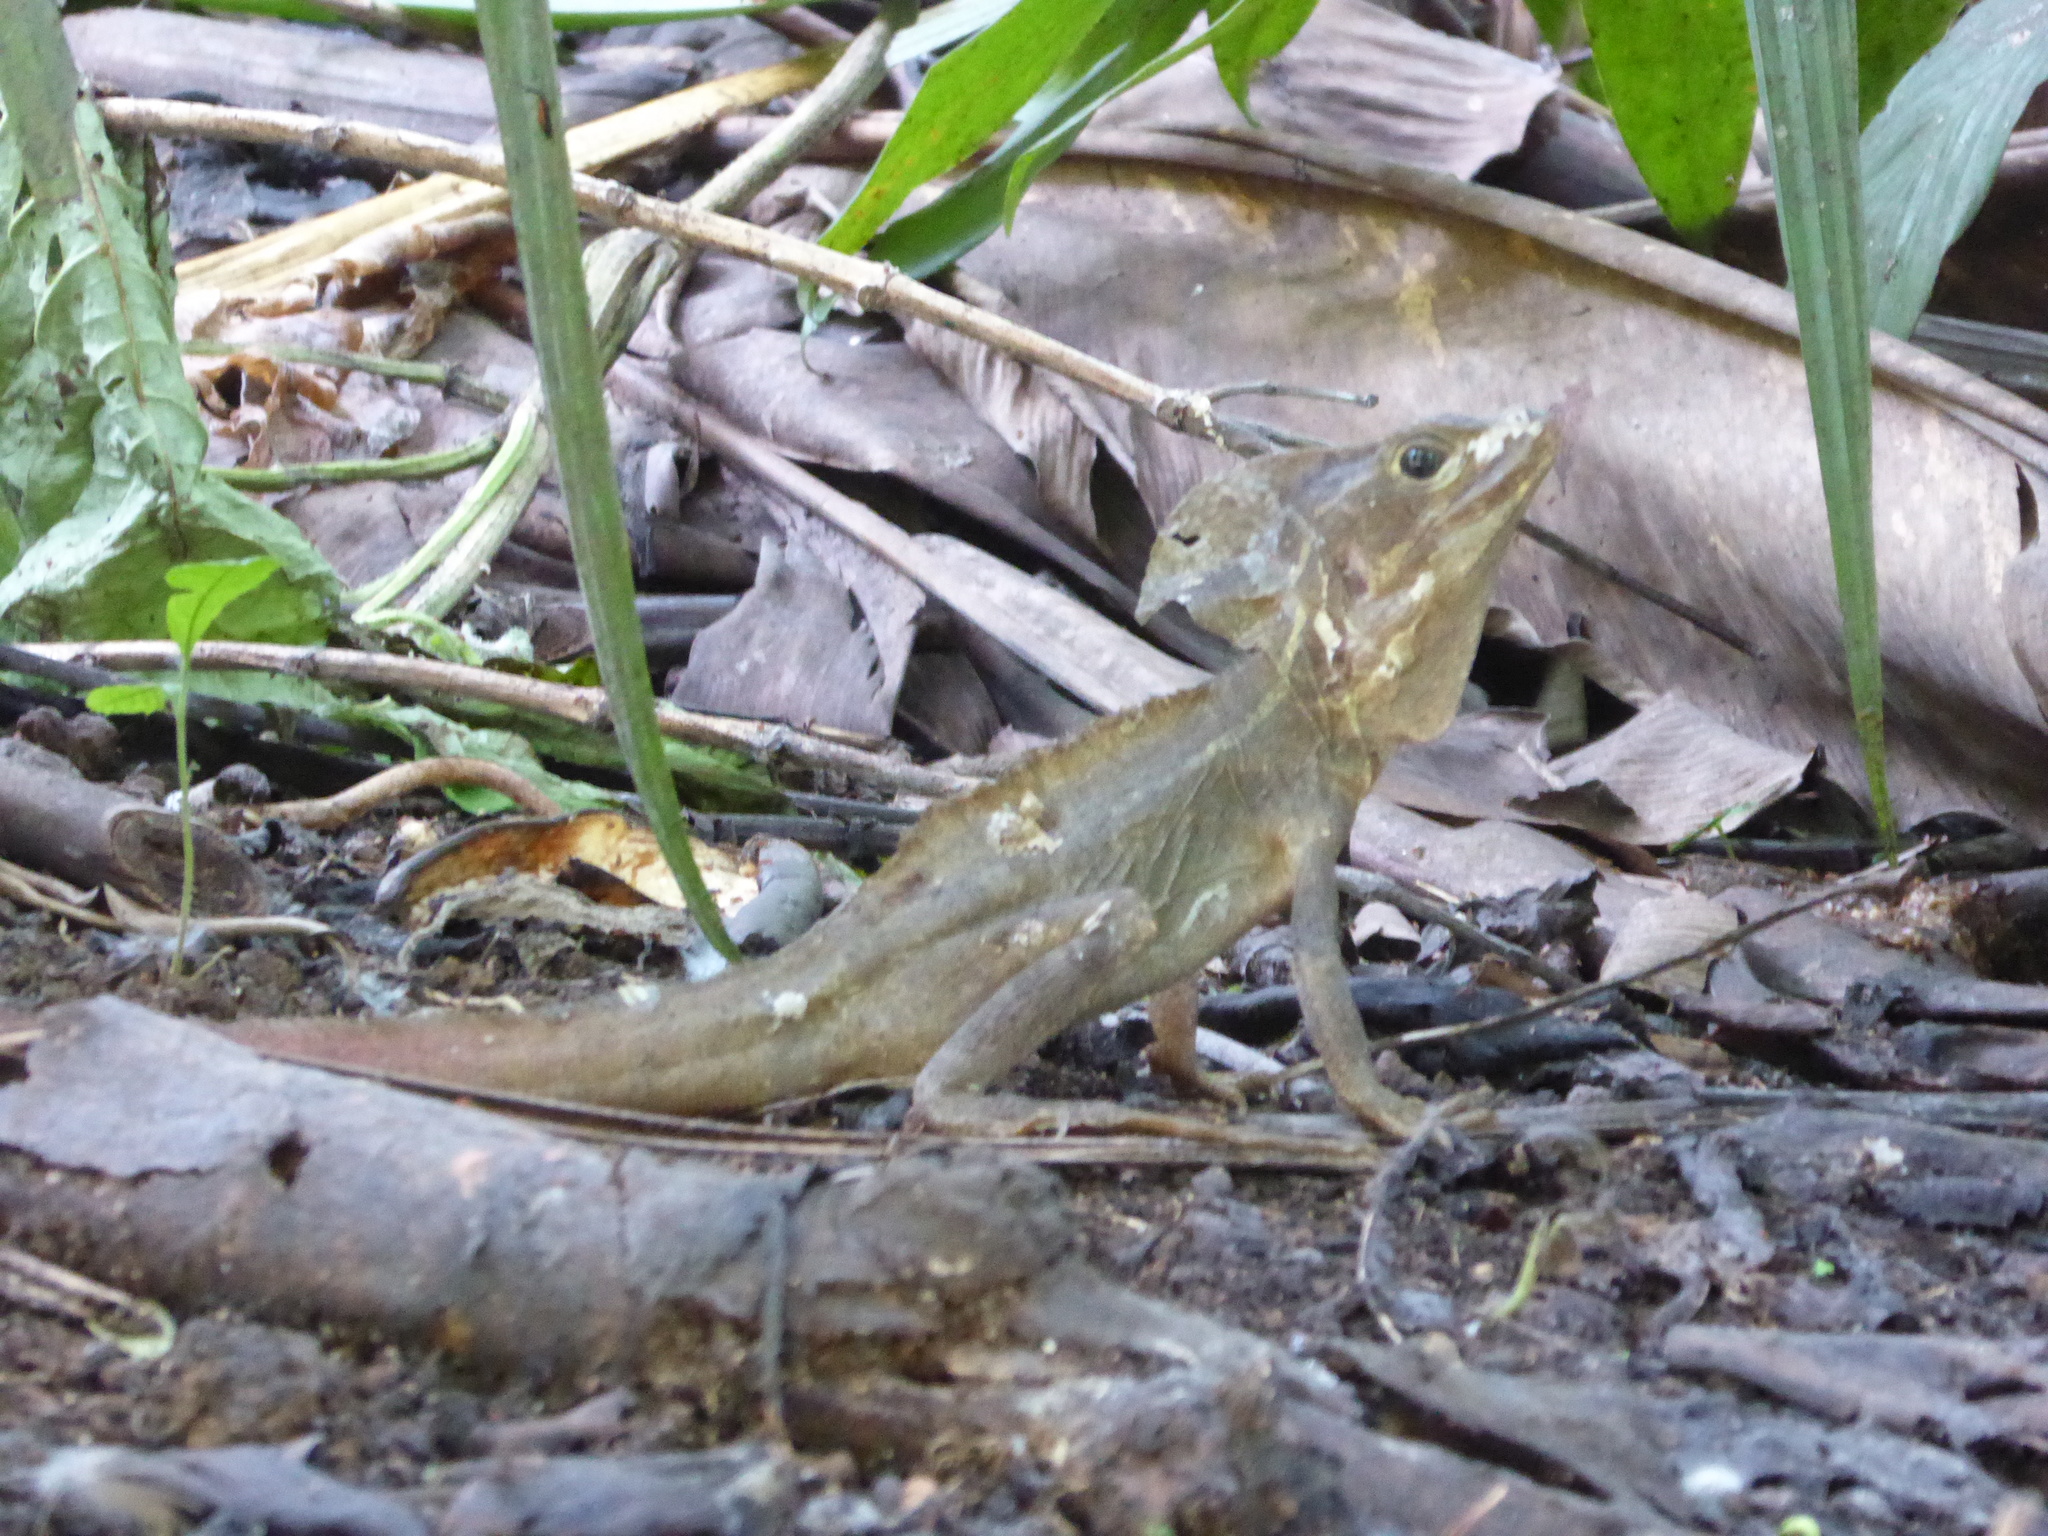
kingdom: Animalia
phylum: Chordata
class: Squamata
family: Corytophanidae
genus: Basiliscus
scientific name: Basiliscus vittatus
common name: Brown basilisk
